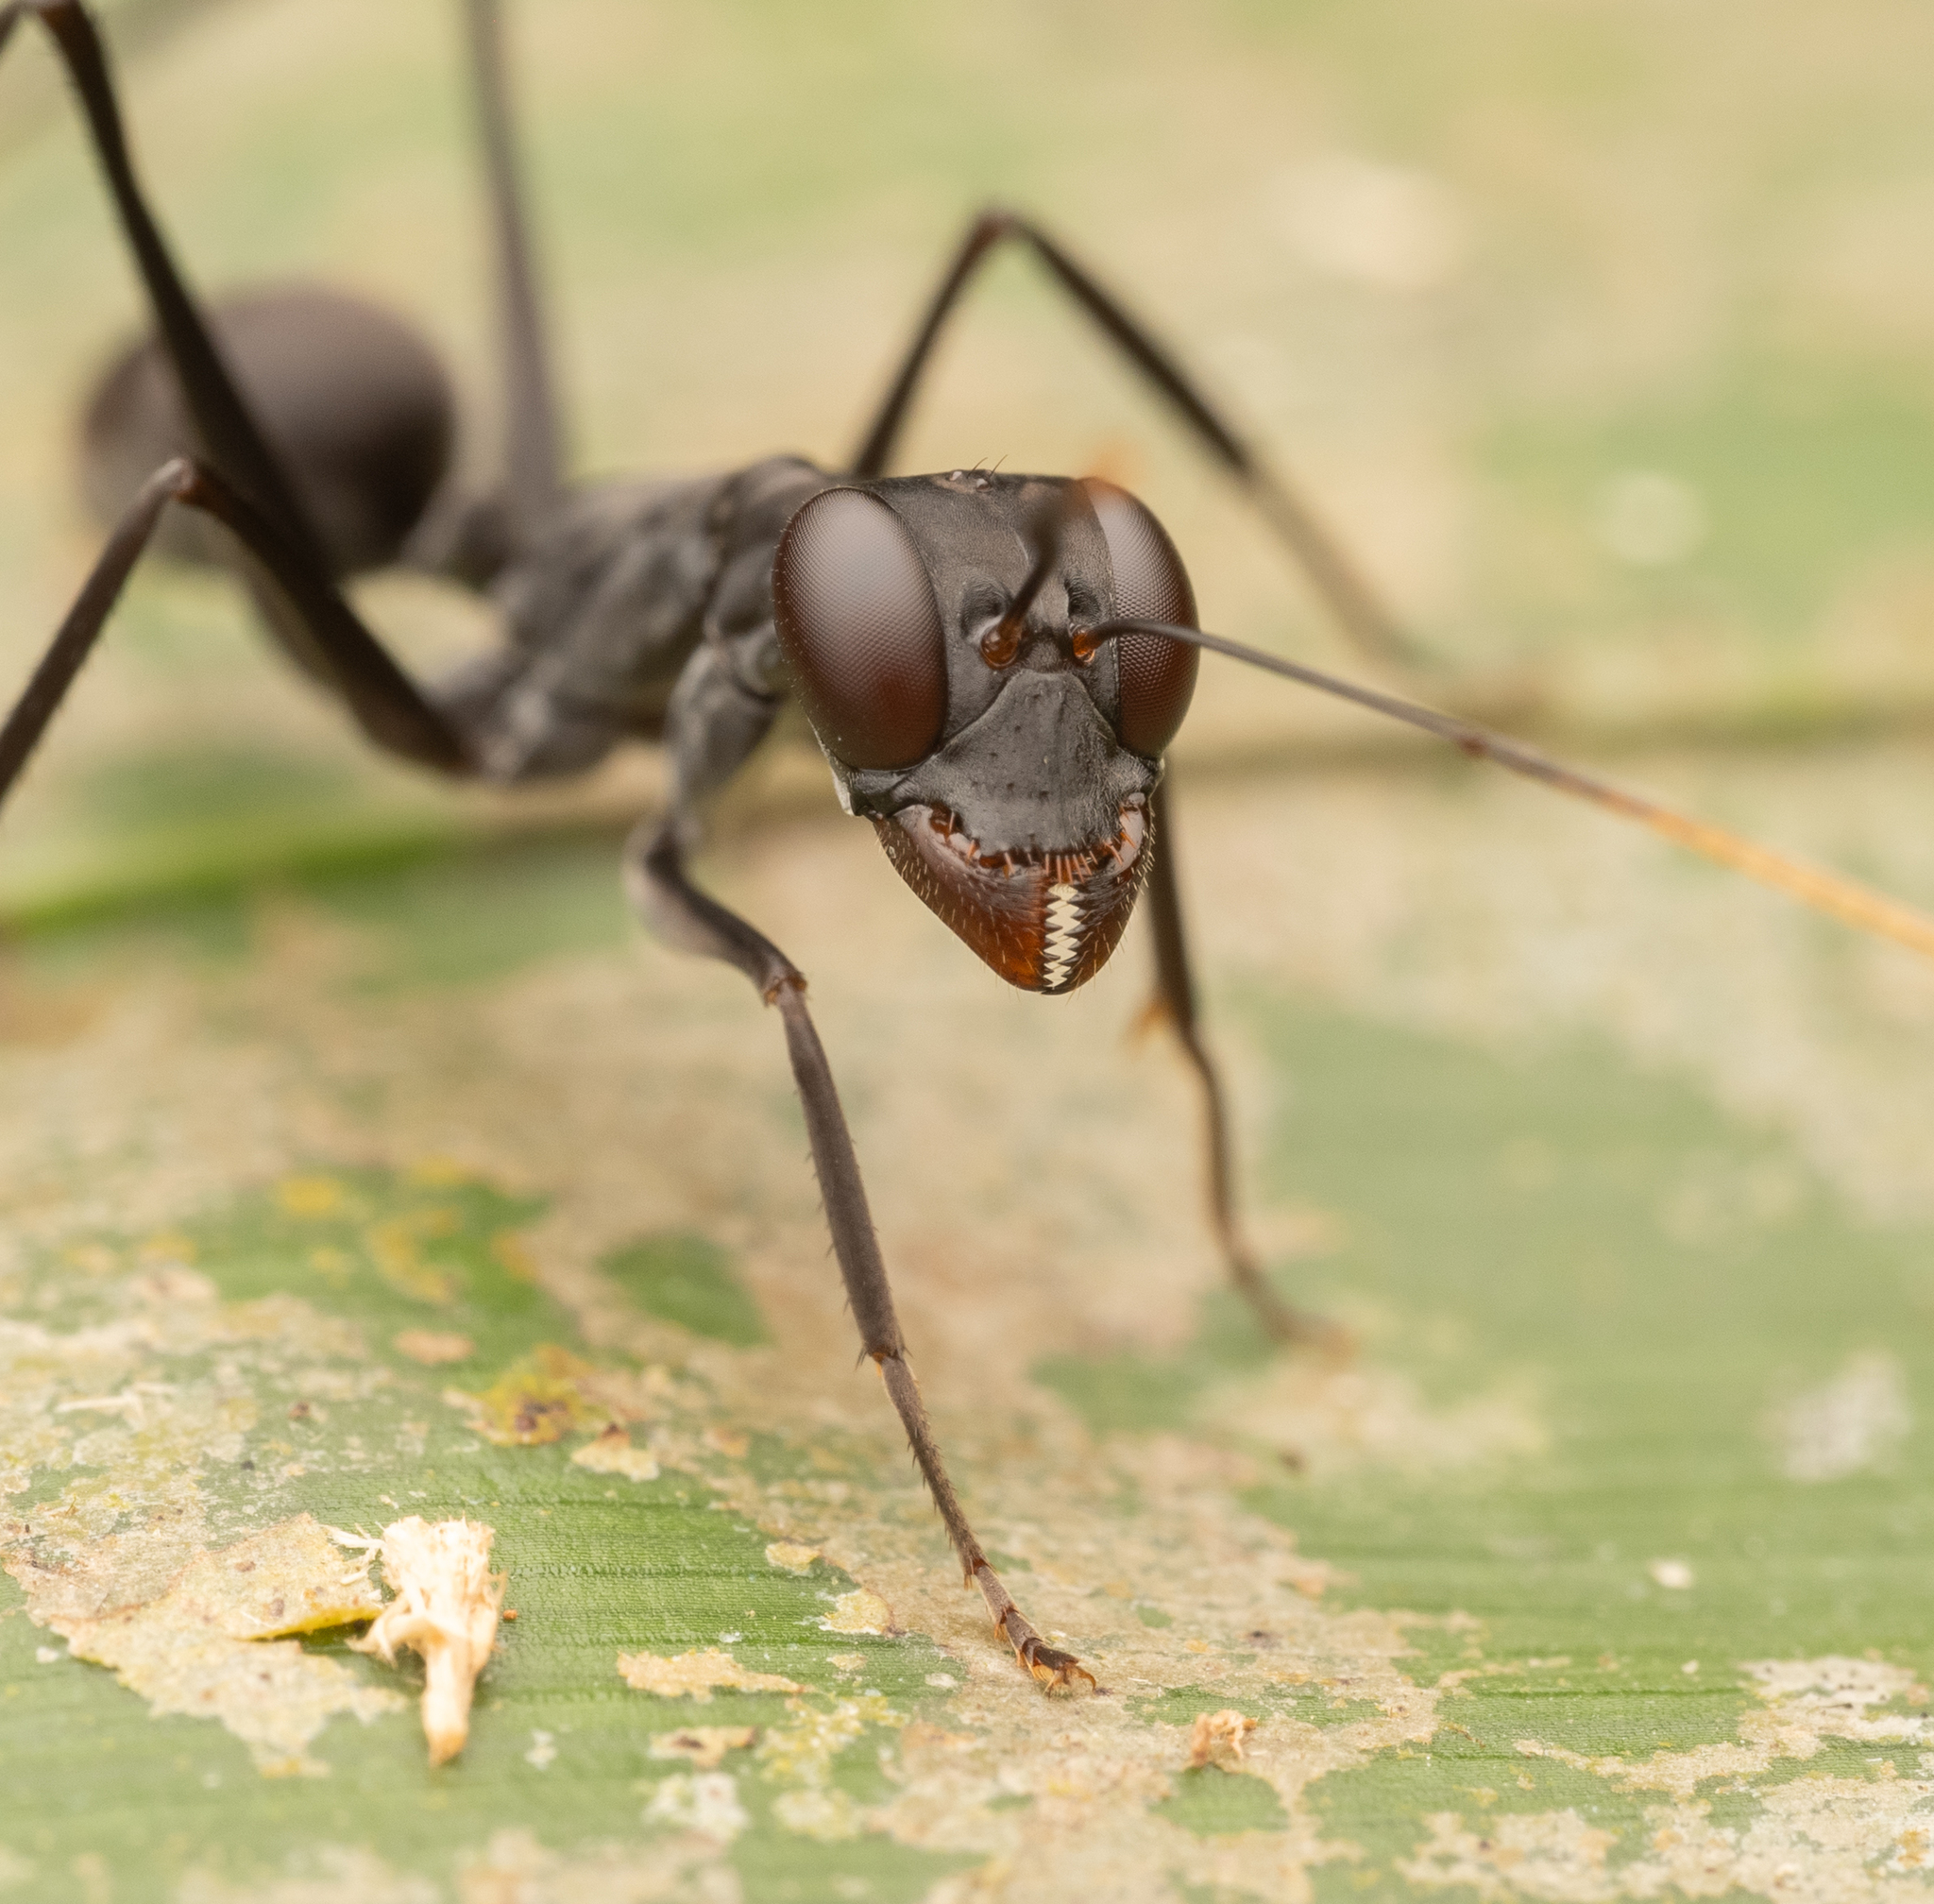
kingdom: Animalia
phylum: Arthropoda
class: Insecta
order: Hymenoptera
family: Formicidae
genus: Gigantiops
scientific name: Gigantiops destructor
